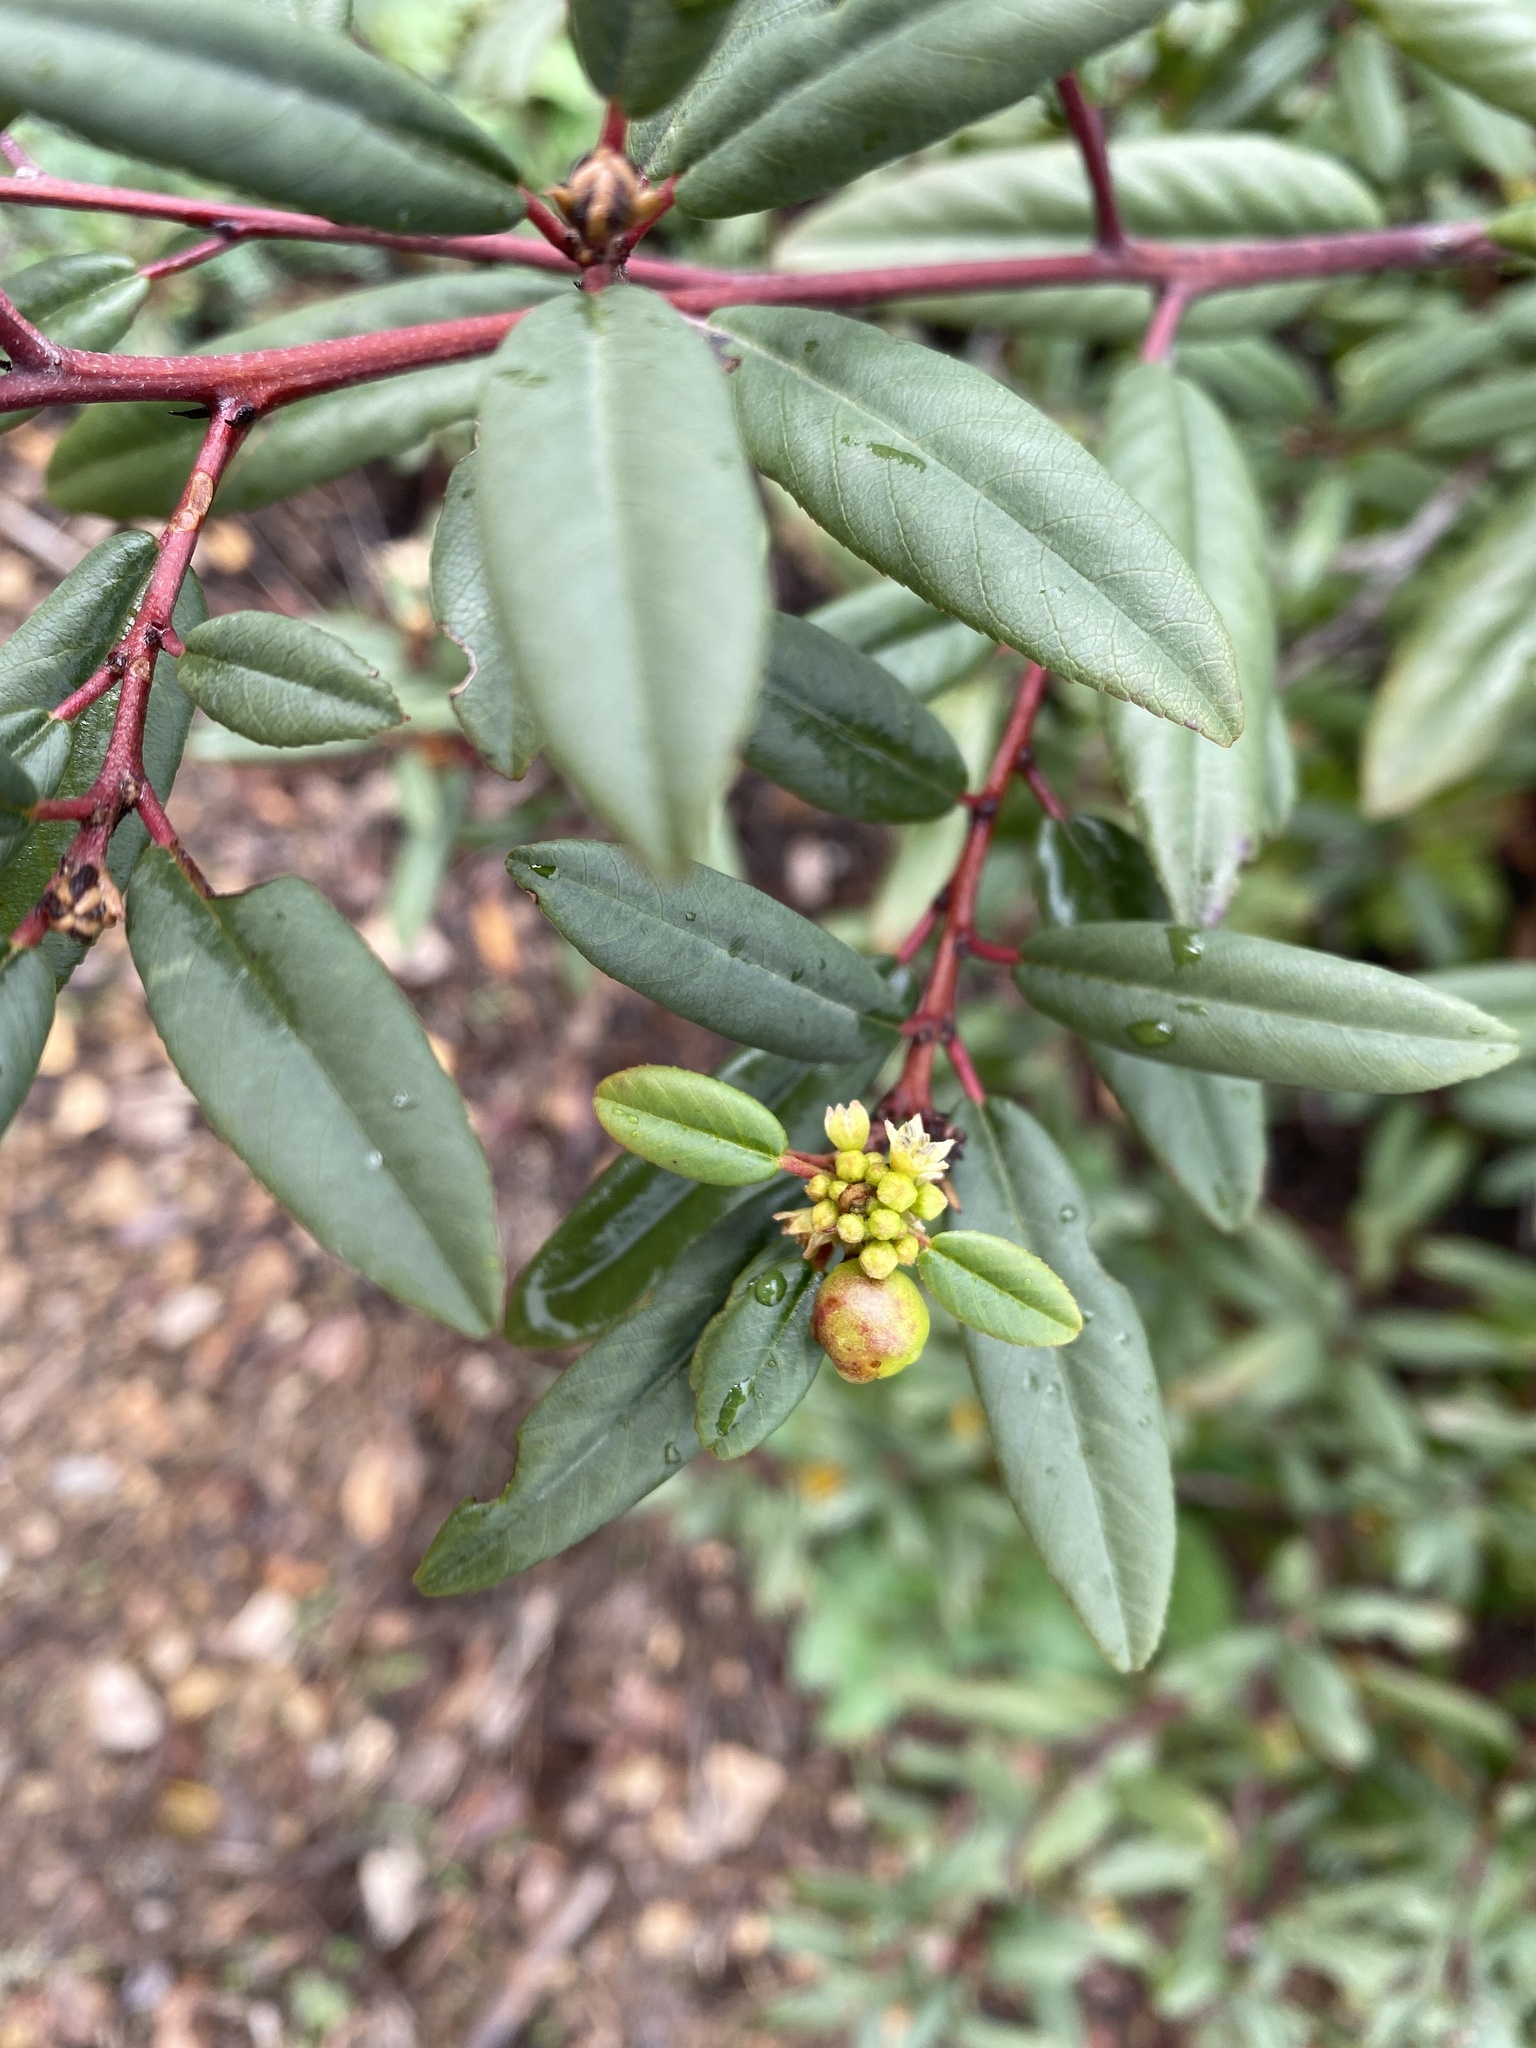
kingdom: Plantae
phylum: Tracheophyta
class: Magnoliopsida
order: Rosales
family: Rhamnaceae
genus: Frangula
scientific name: Frangula californica
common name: California buckthorn
